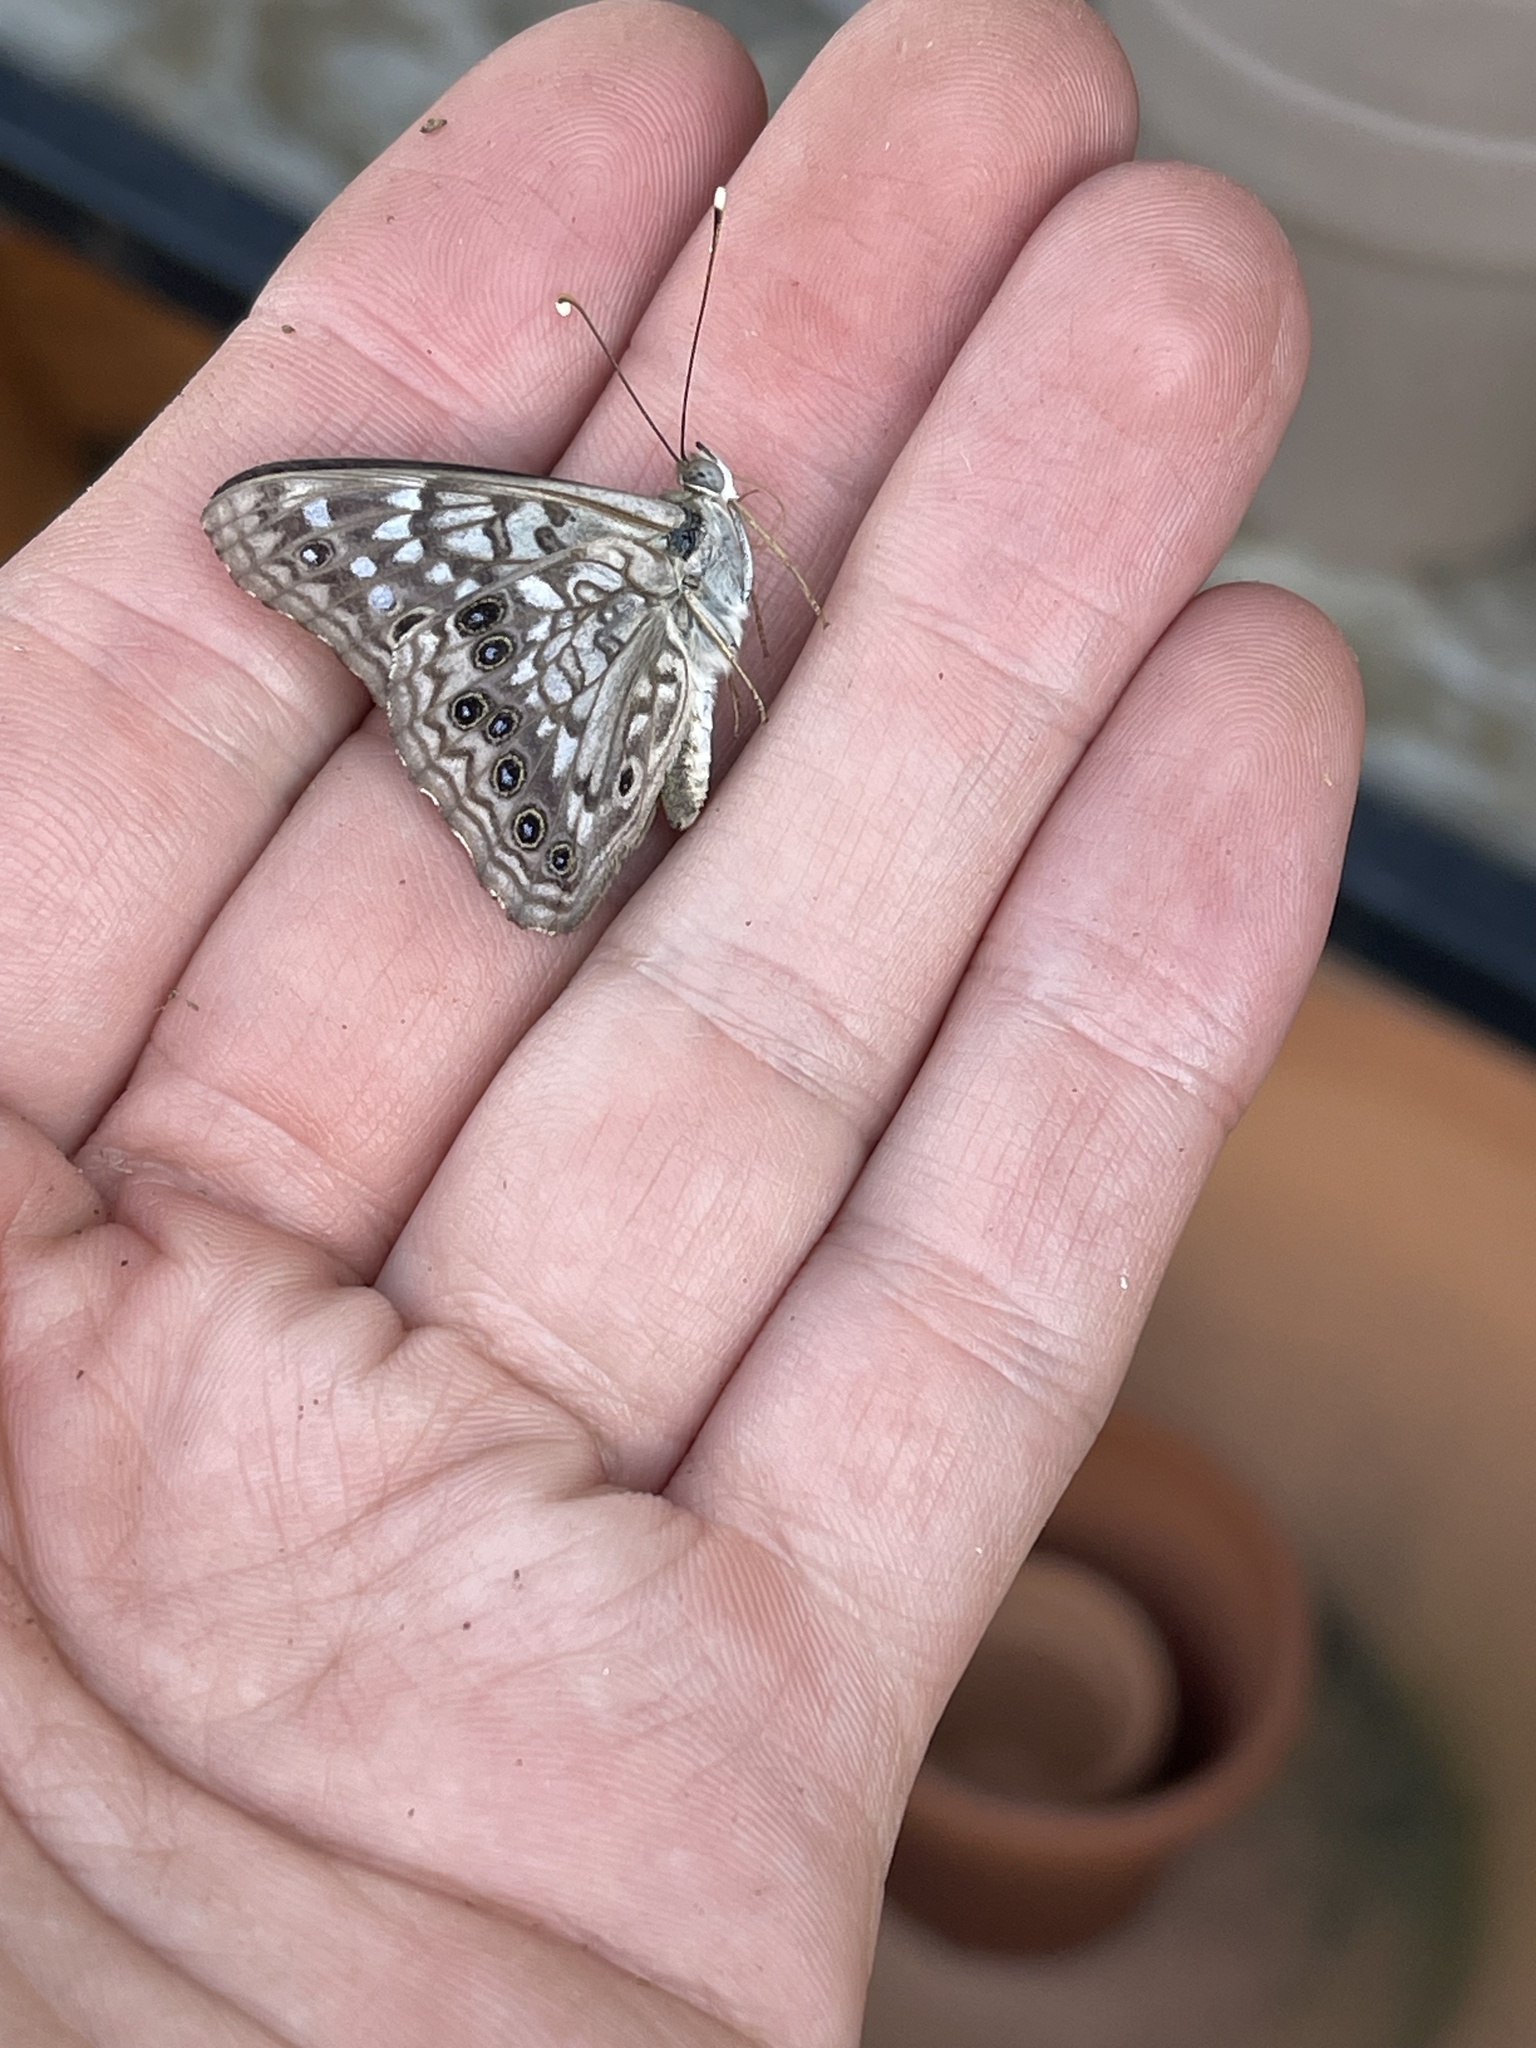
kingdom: Animalia
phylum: Arthropoda
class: Insecta
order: Lepidoptera
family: Nymphalidae
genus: Asterocampa
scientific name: Asterocampa celtis
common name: Hackberry emperor
